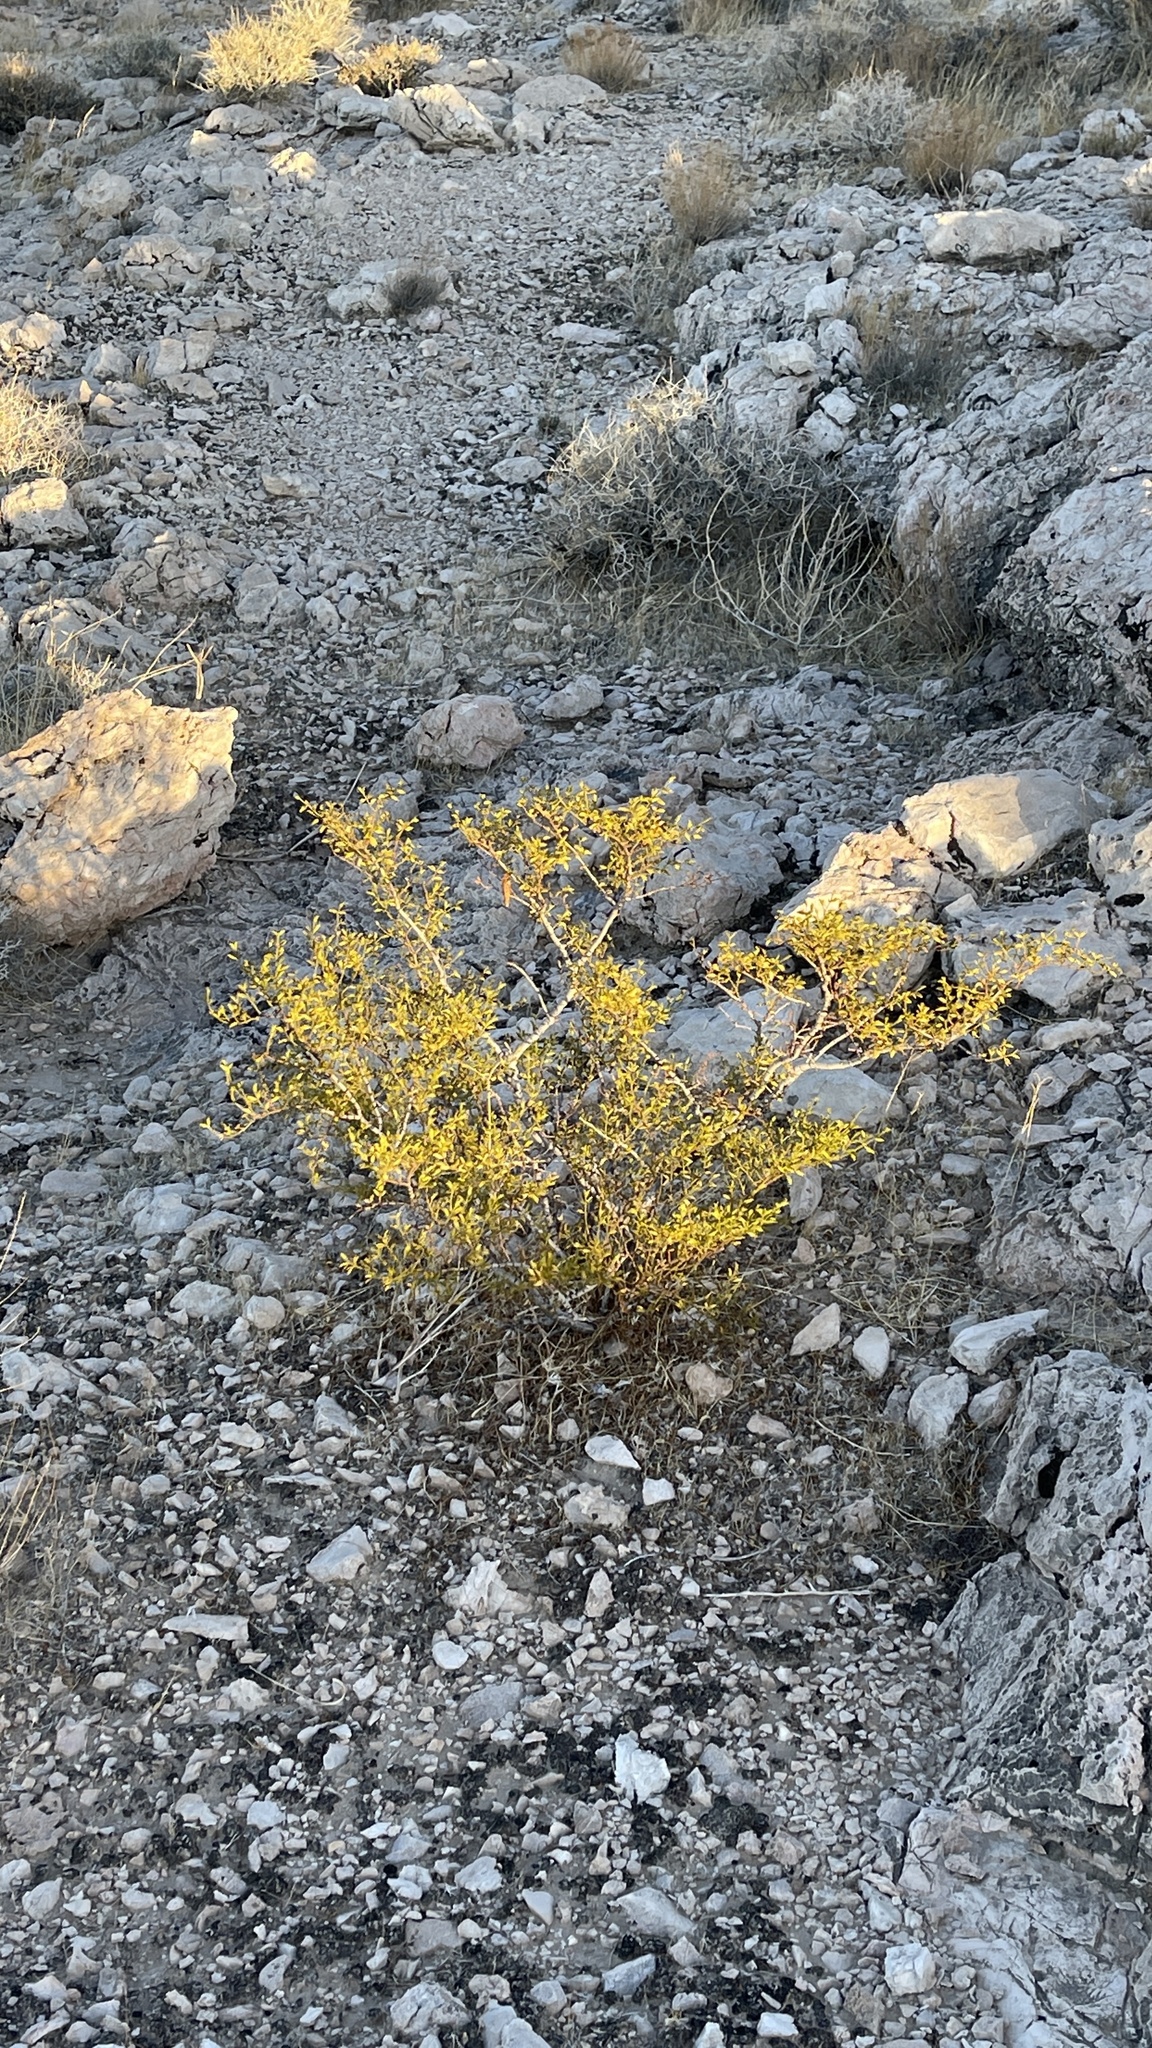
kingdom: Plantae
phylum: Tracheophyta
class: Magnoliopsida
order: Zygophyllales
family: Zygophyllaceae
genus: Larrea
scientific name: Larrea tridentata
